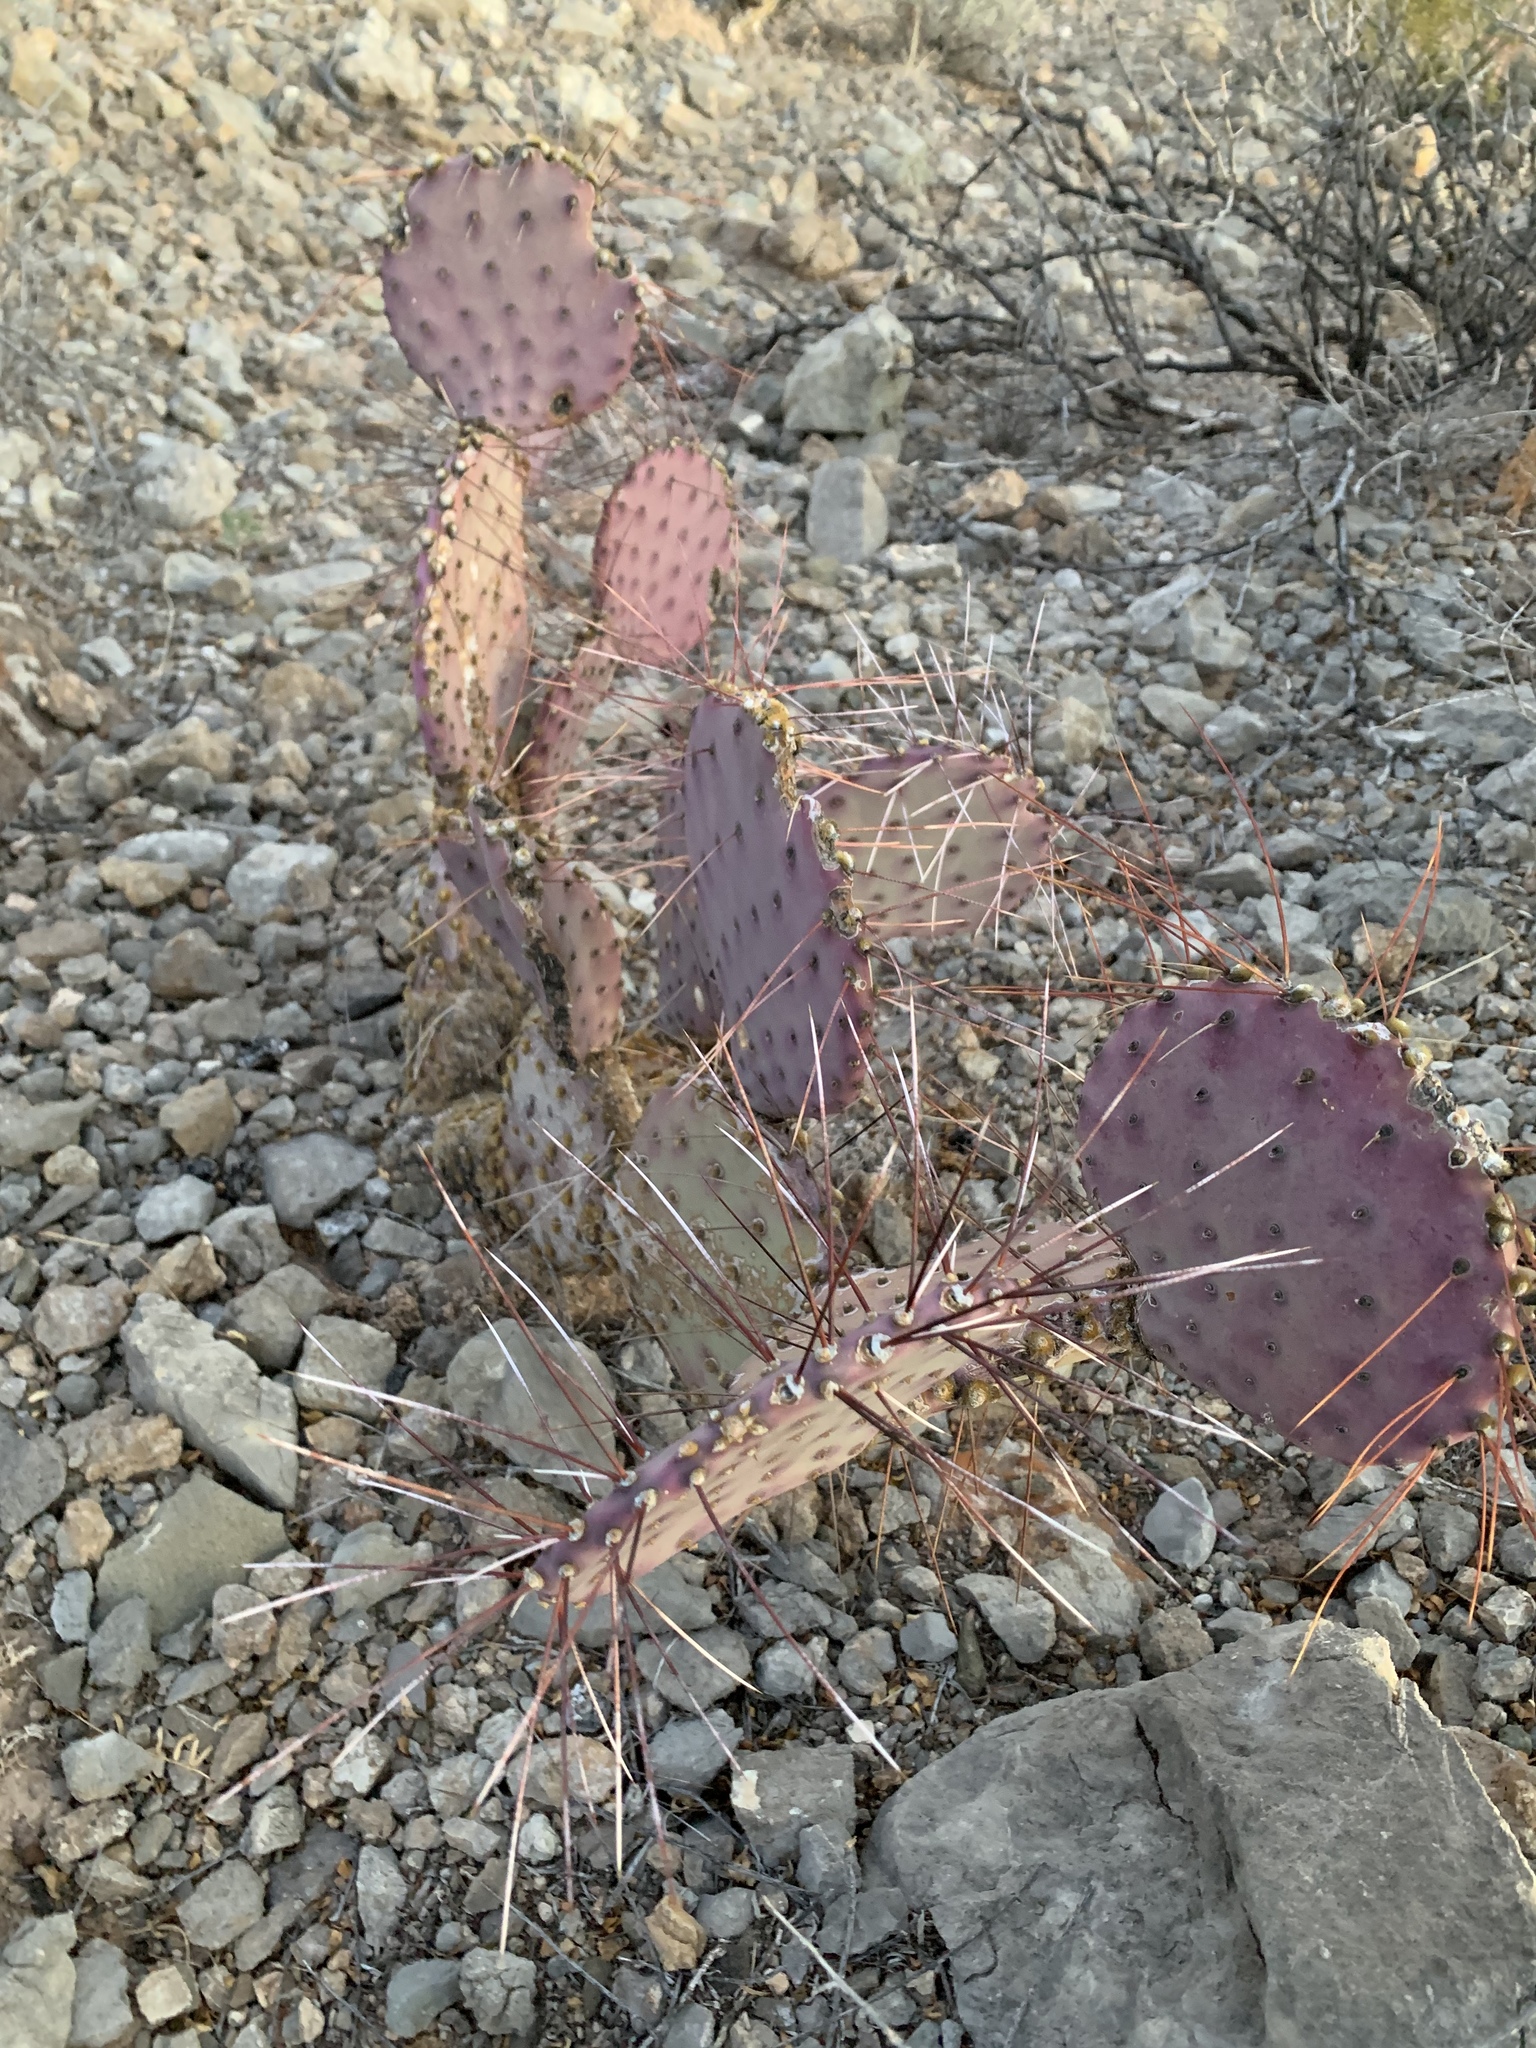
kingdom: Plantae
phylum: Tracheophyta
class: Magnoliopsida
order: Caryophyllales
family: Cactaceae
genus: Opuntia
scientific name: Opuntia macrocentra
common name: Purple prickly-pear
